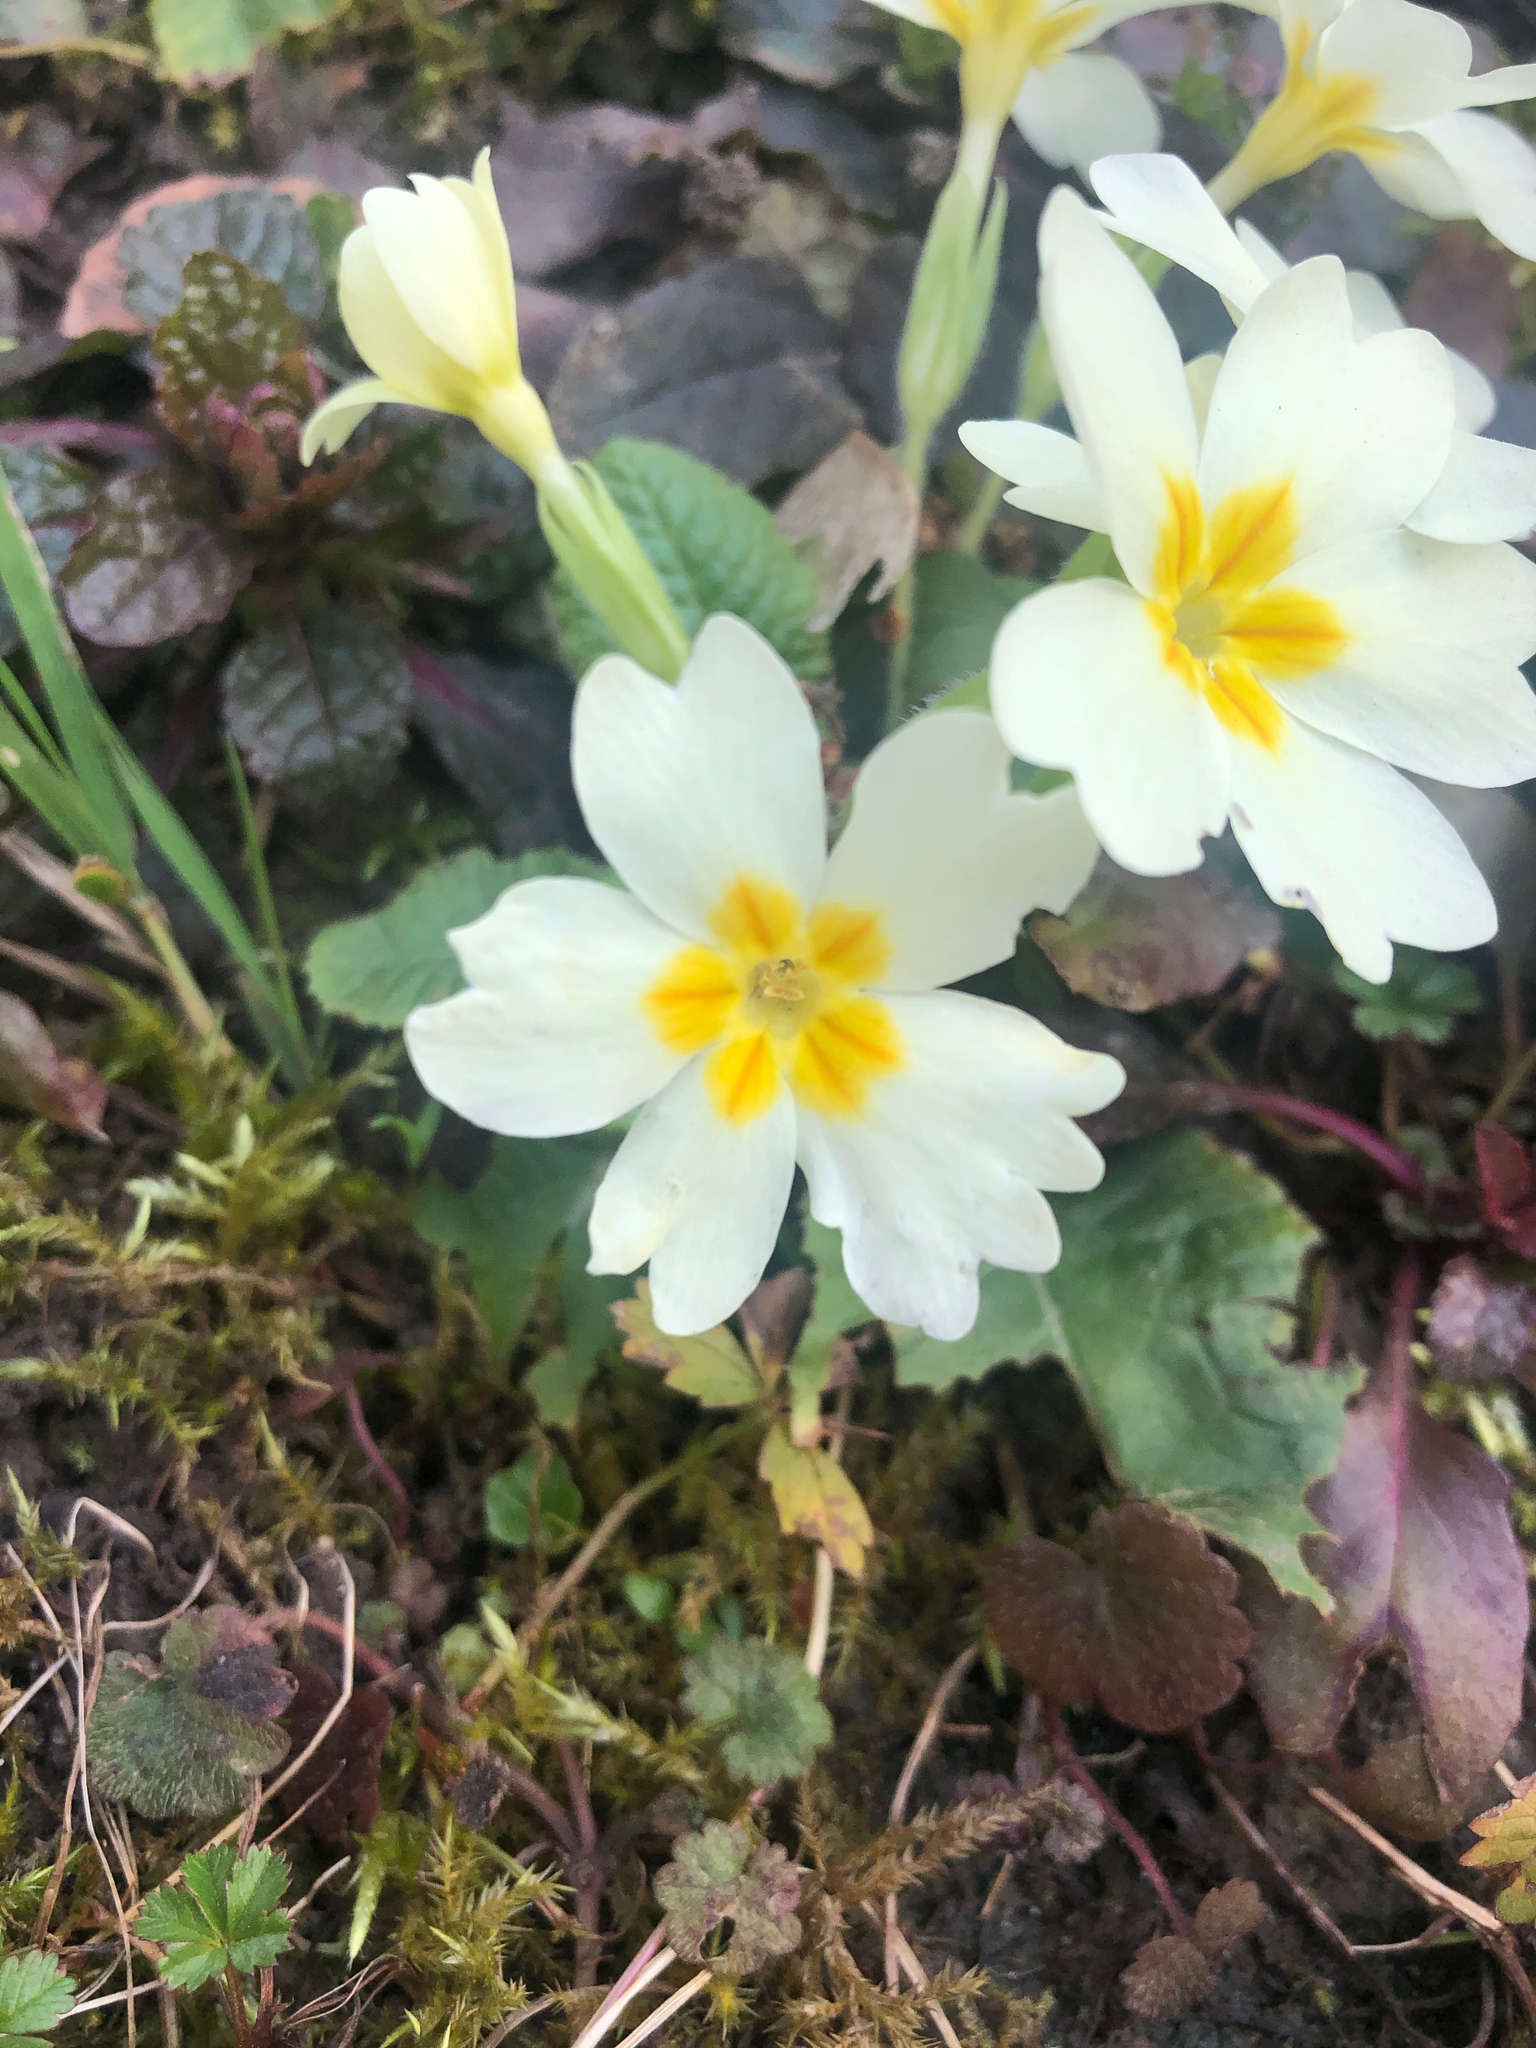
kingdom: Plantae
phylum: Tracheophyta
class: Magnoliopsida
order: Ericales
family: Primulaceae
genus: Primula
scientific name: Primula vulgaris
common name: Primrose
